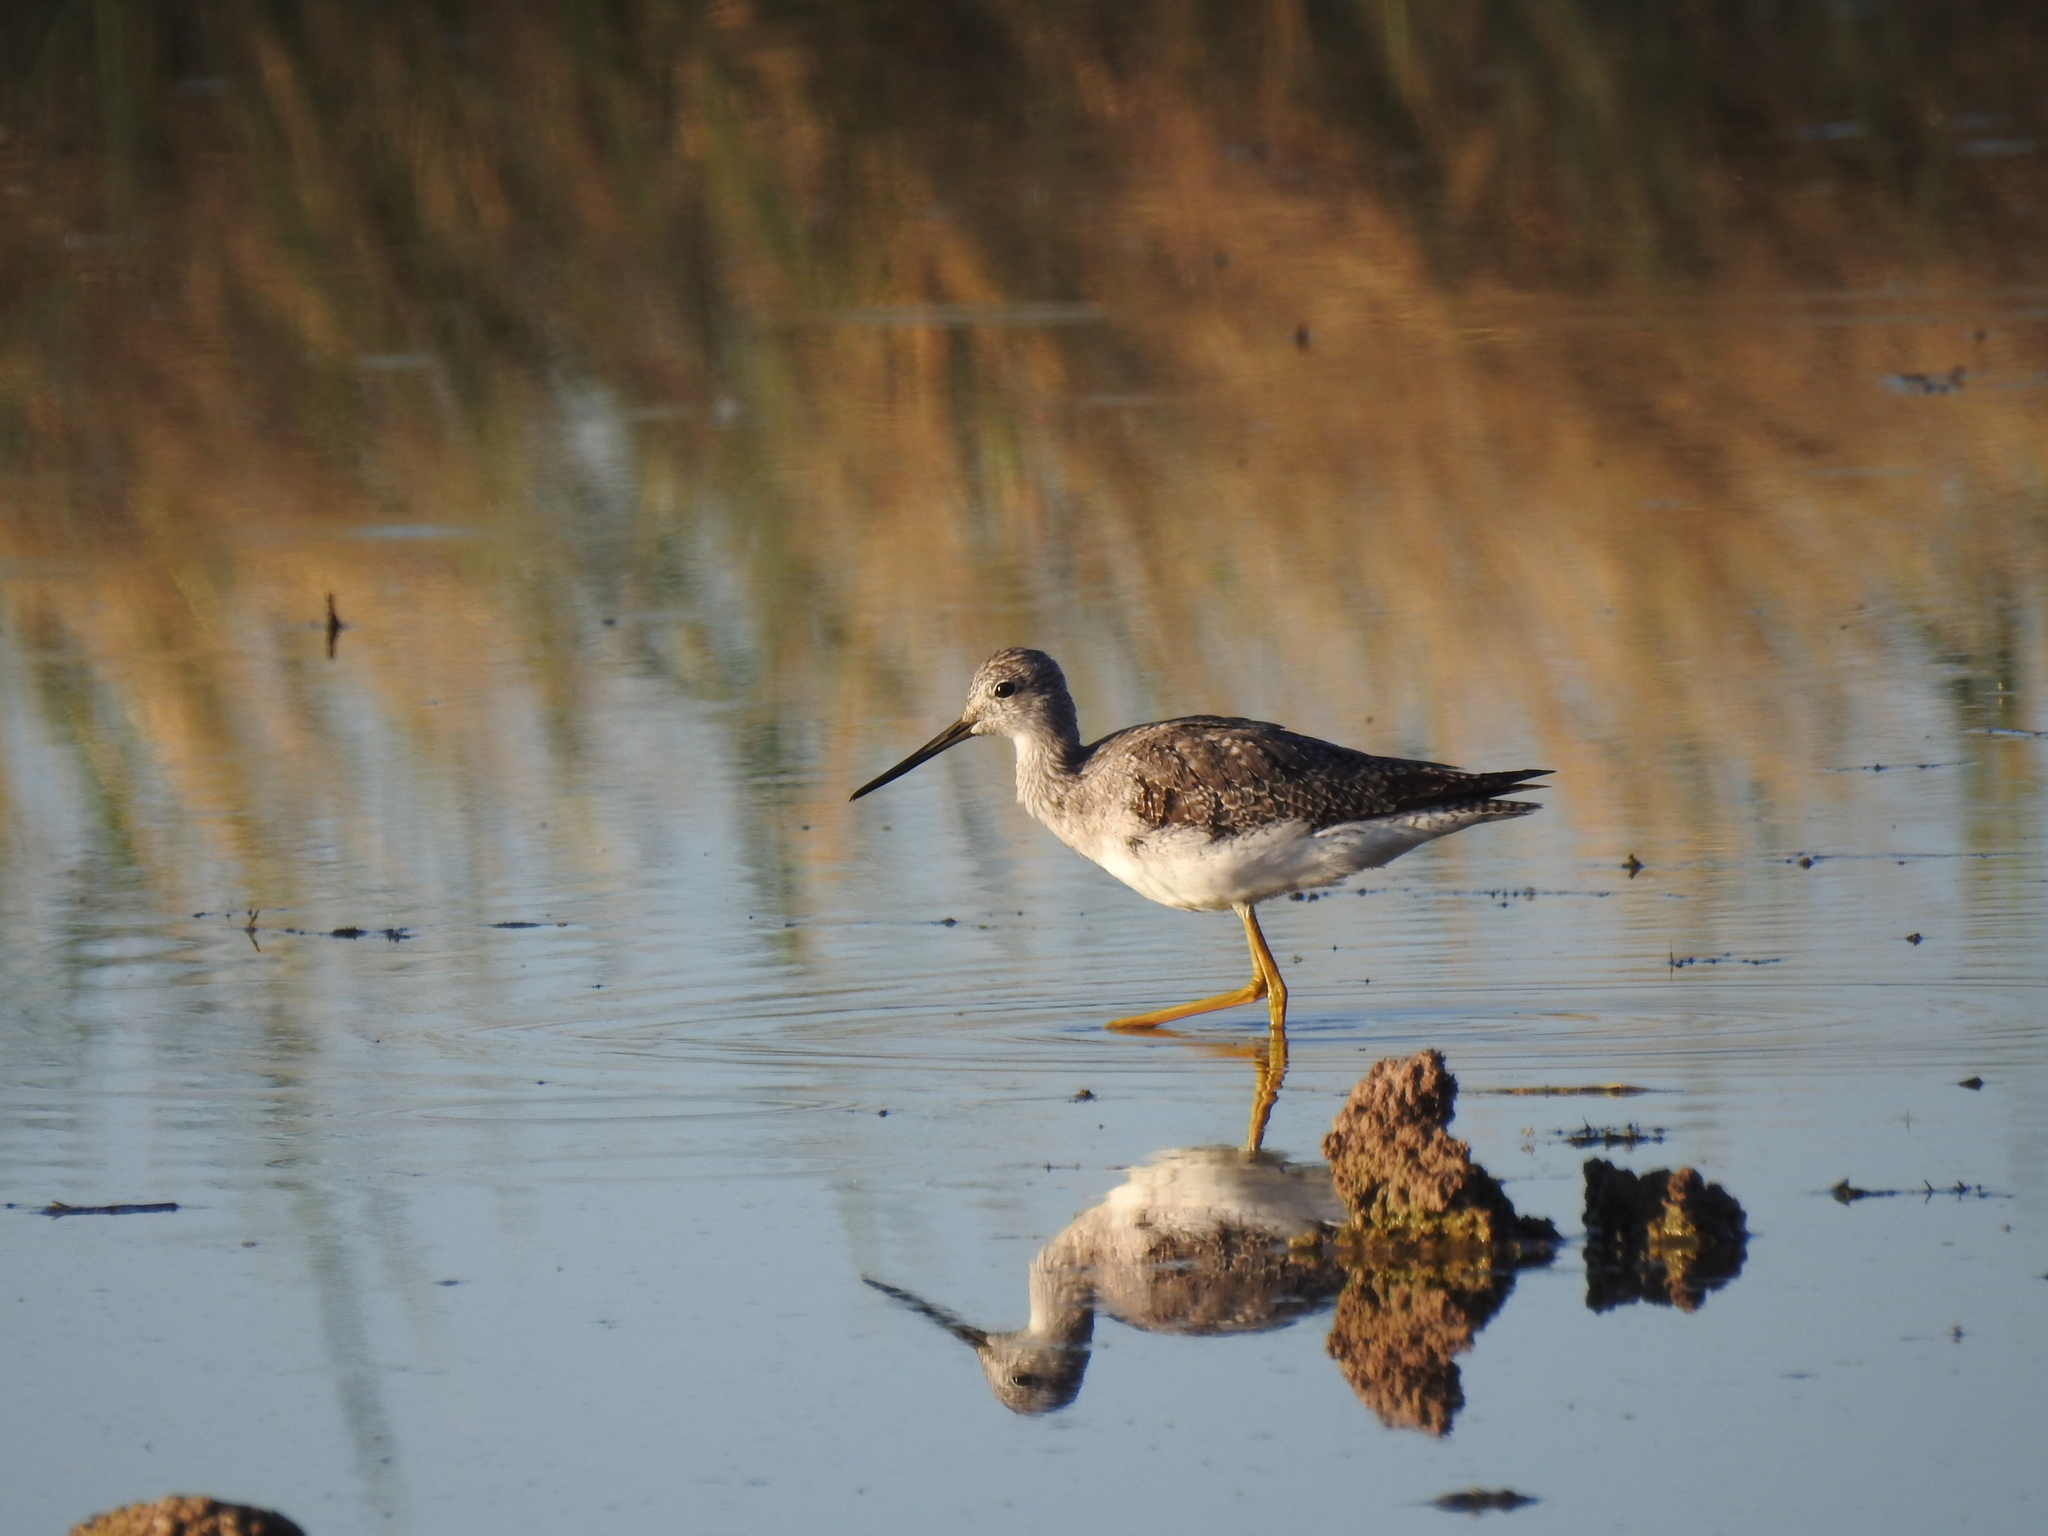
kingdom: Animalia
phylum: Chordata
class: Aves
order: Charadriiformes
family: Scolopacidae
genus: Tringa
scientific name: Tringa melanoleuca
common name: Greater yellowlegs
